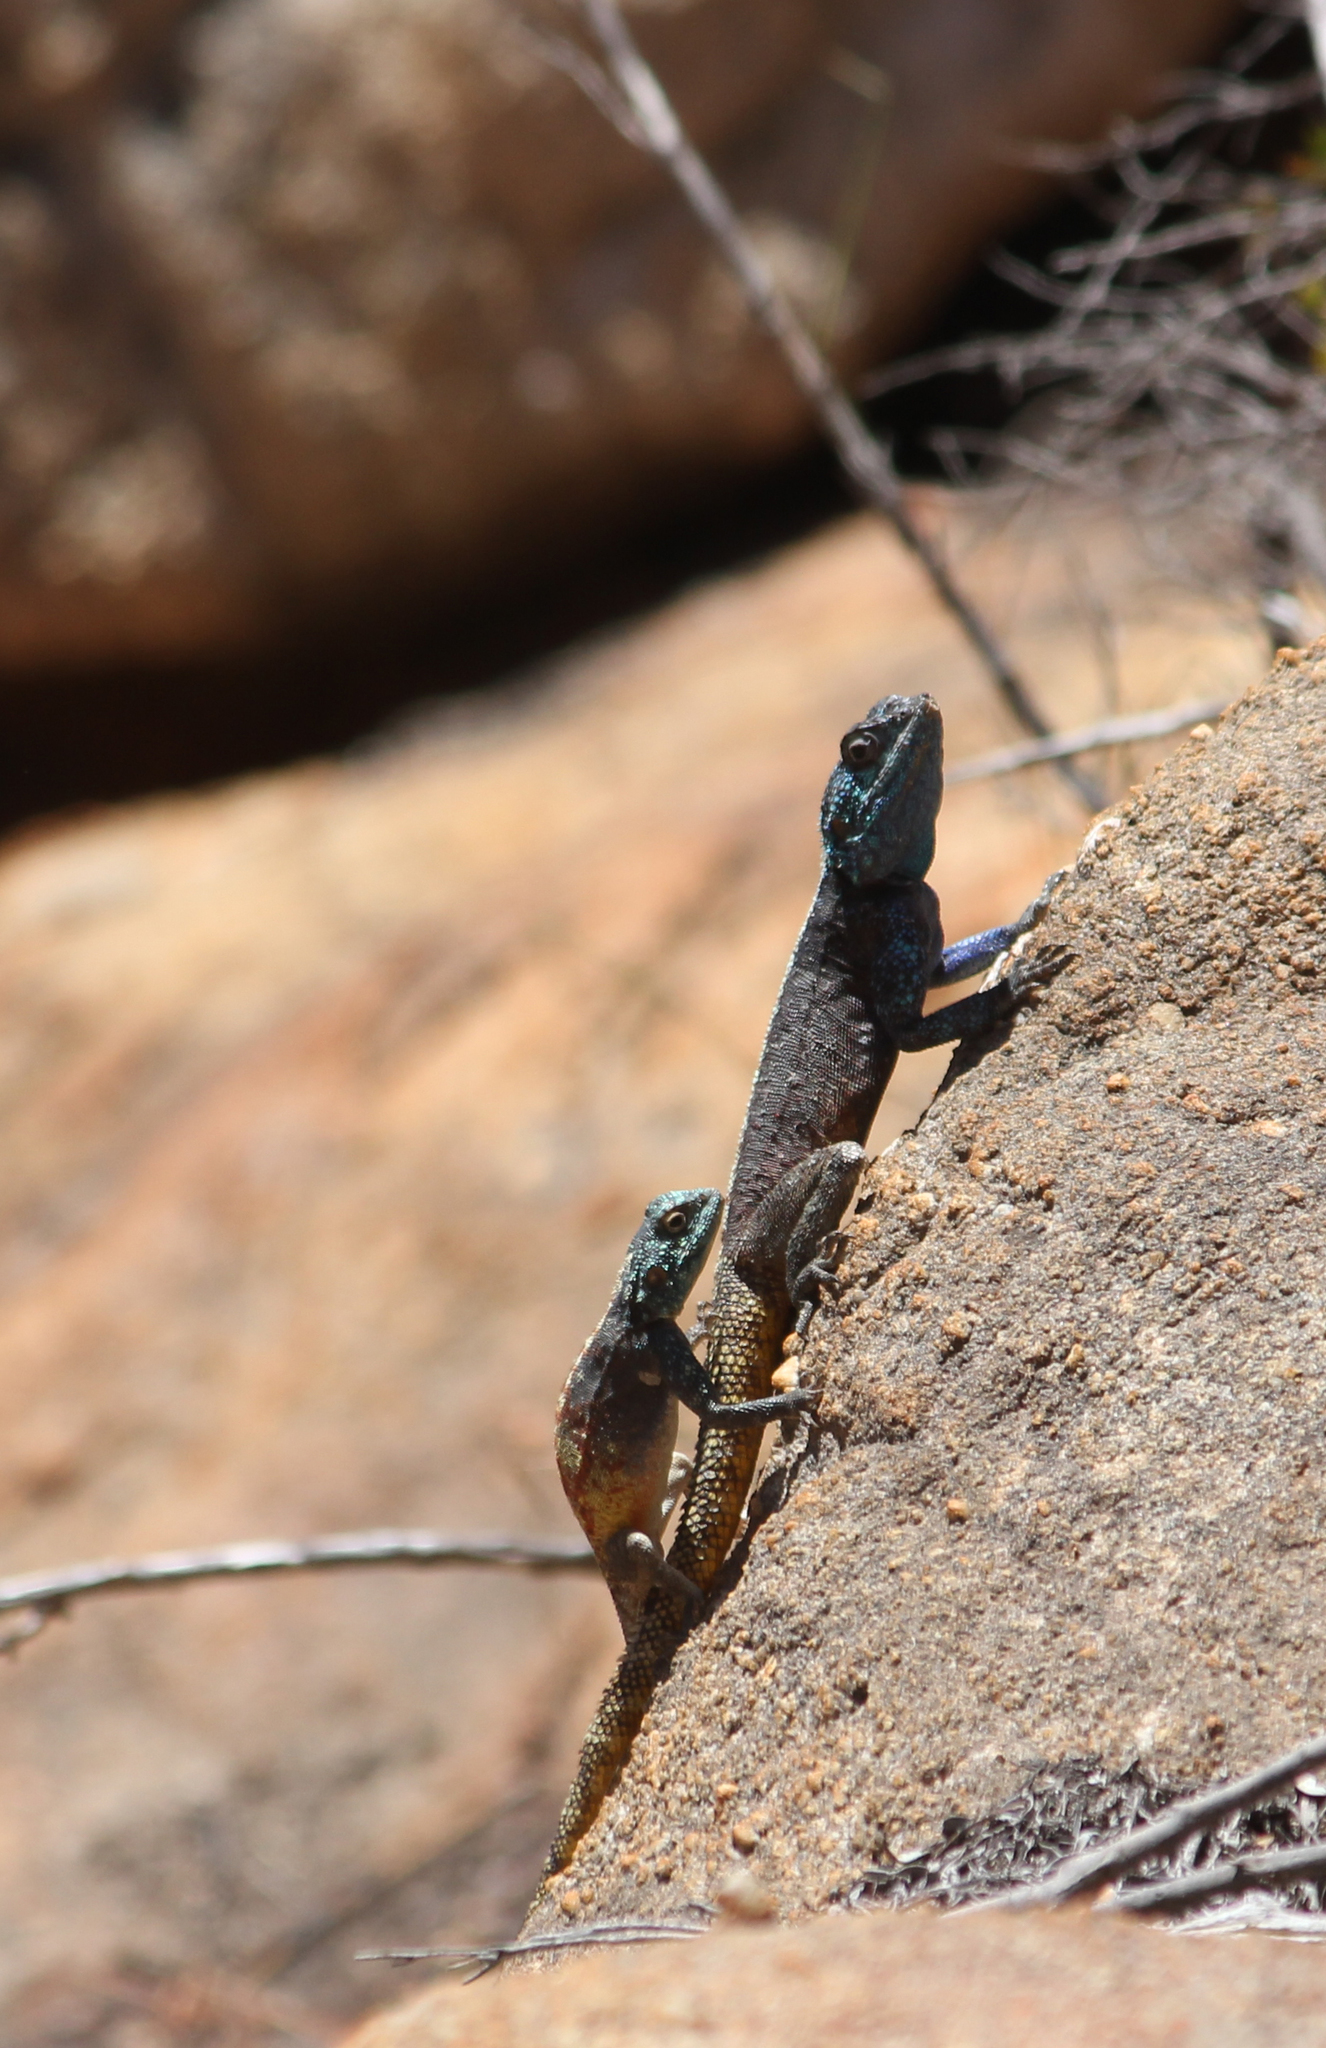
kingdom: Animalia
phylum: Chordata
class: Squamata
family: Agamidae
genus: Agama
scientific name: Agama atra
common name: Southern african rock agama
